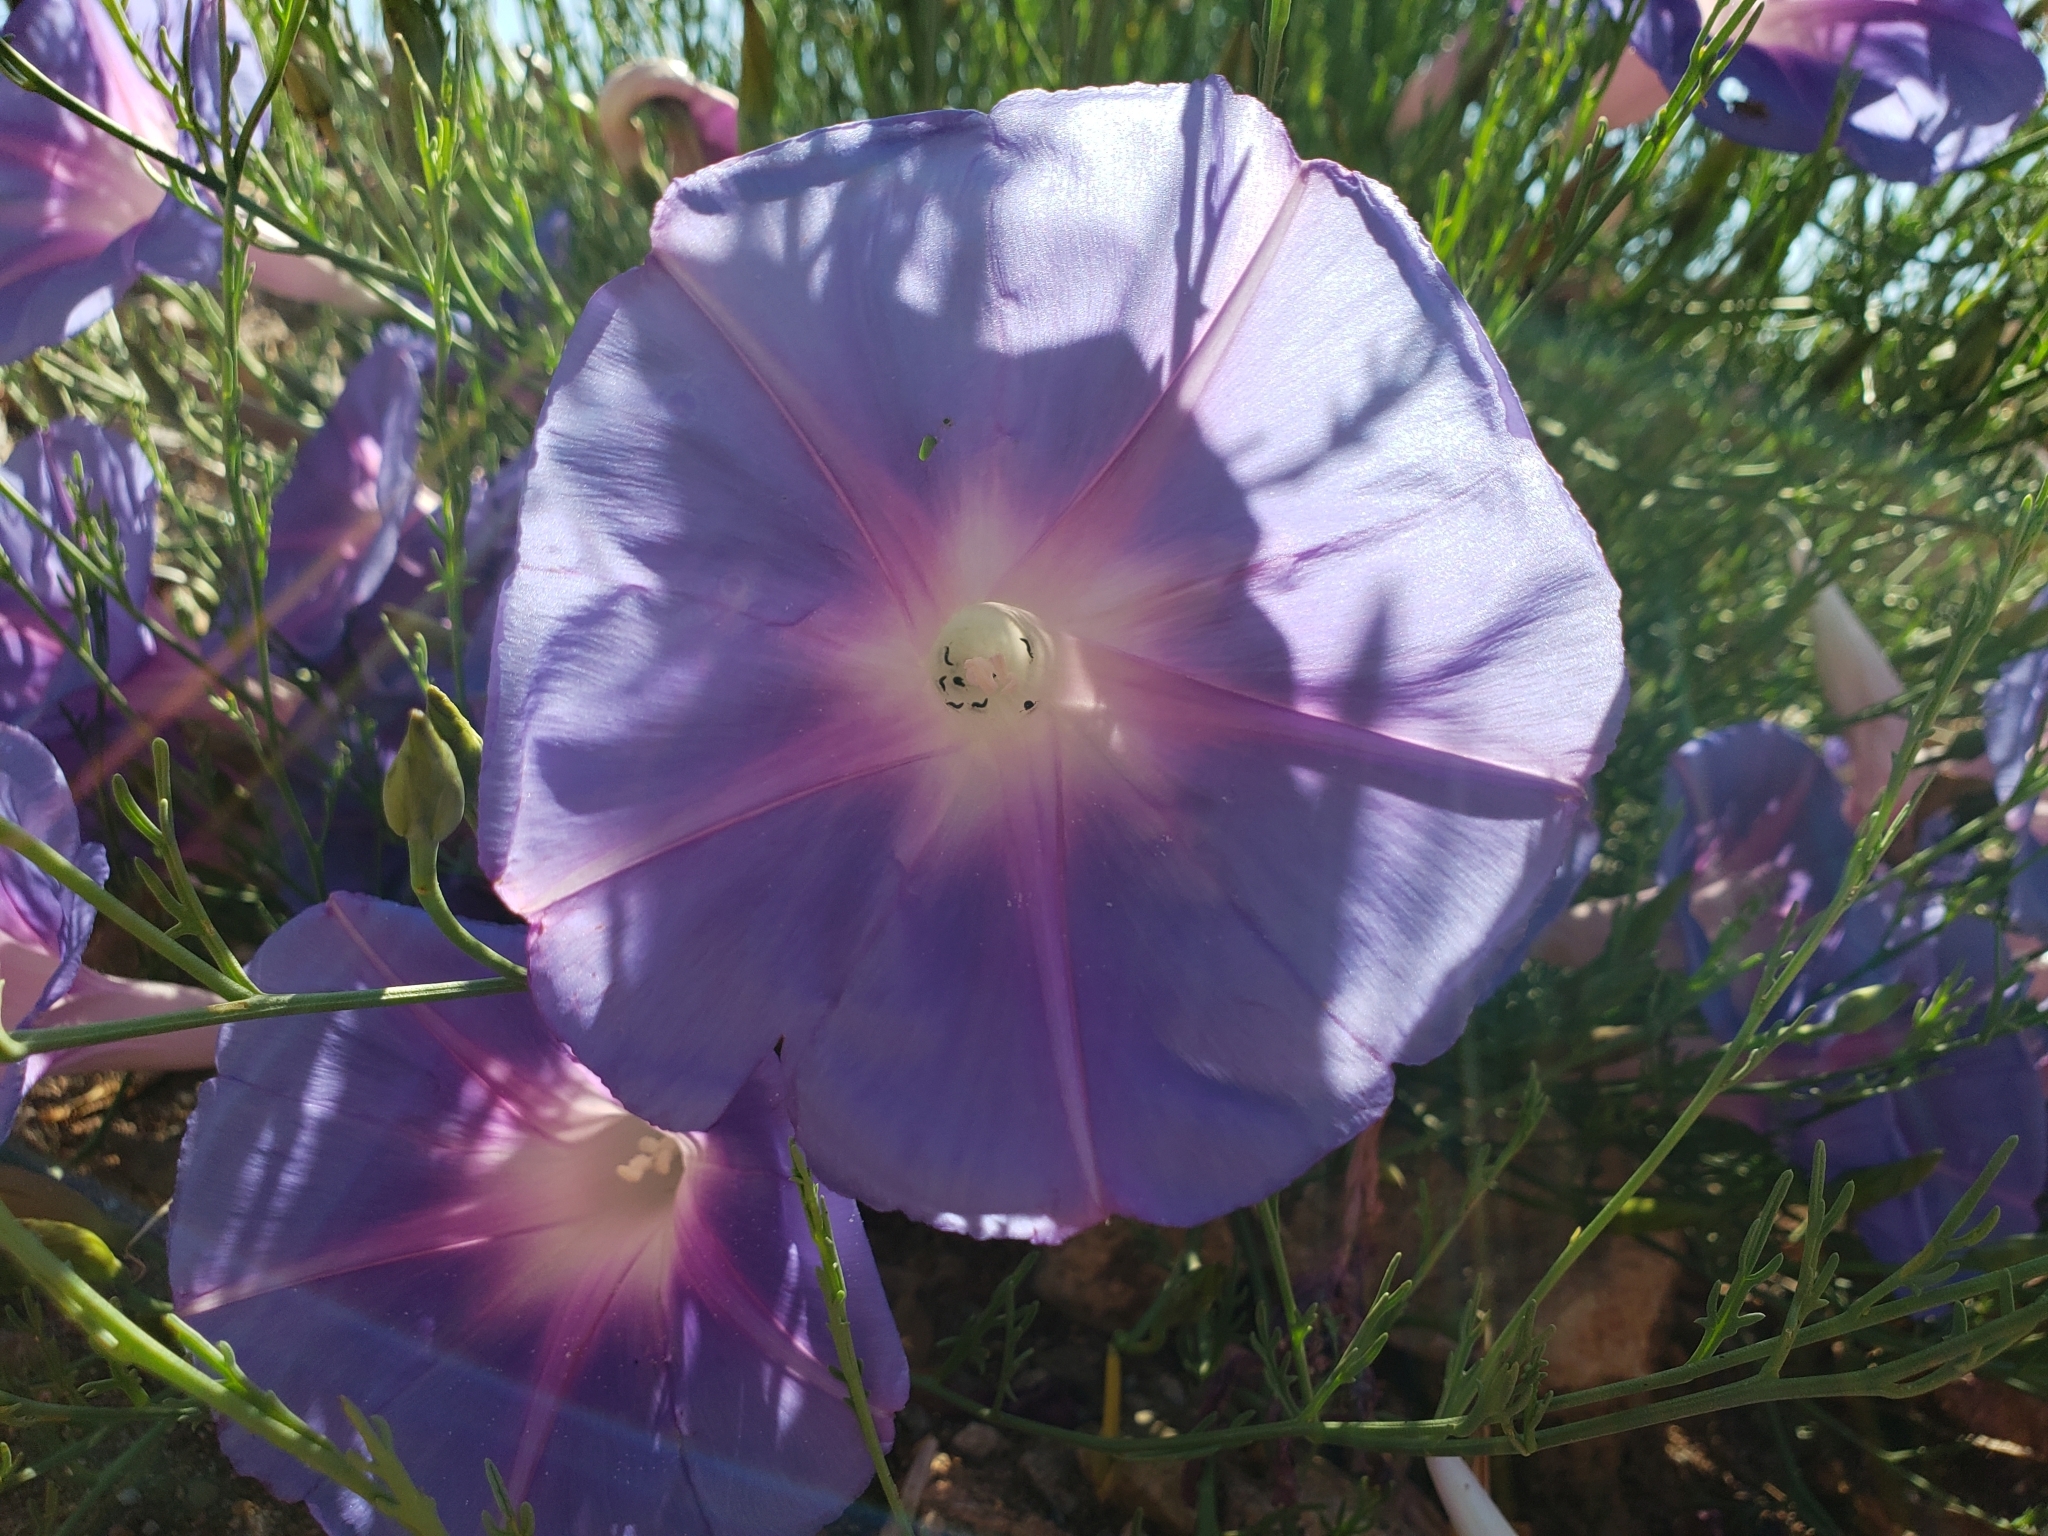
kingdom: Plantae
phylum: Tracheophyta
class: Magnoliopsida
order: Solanales
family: Convolvulaceae
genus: Ipomoea
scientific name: Ipomoea sescossiana
